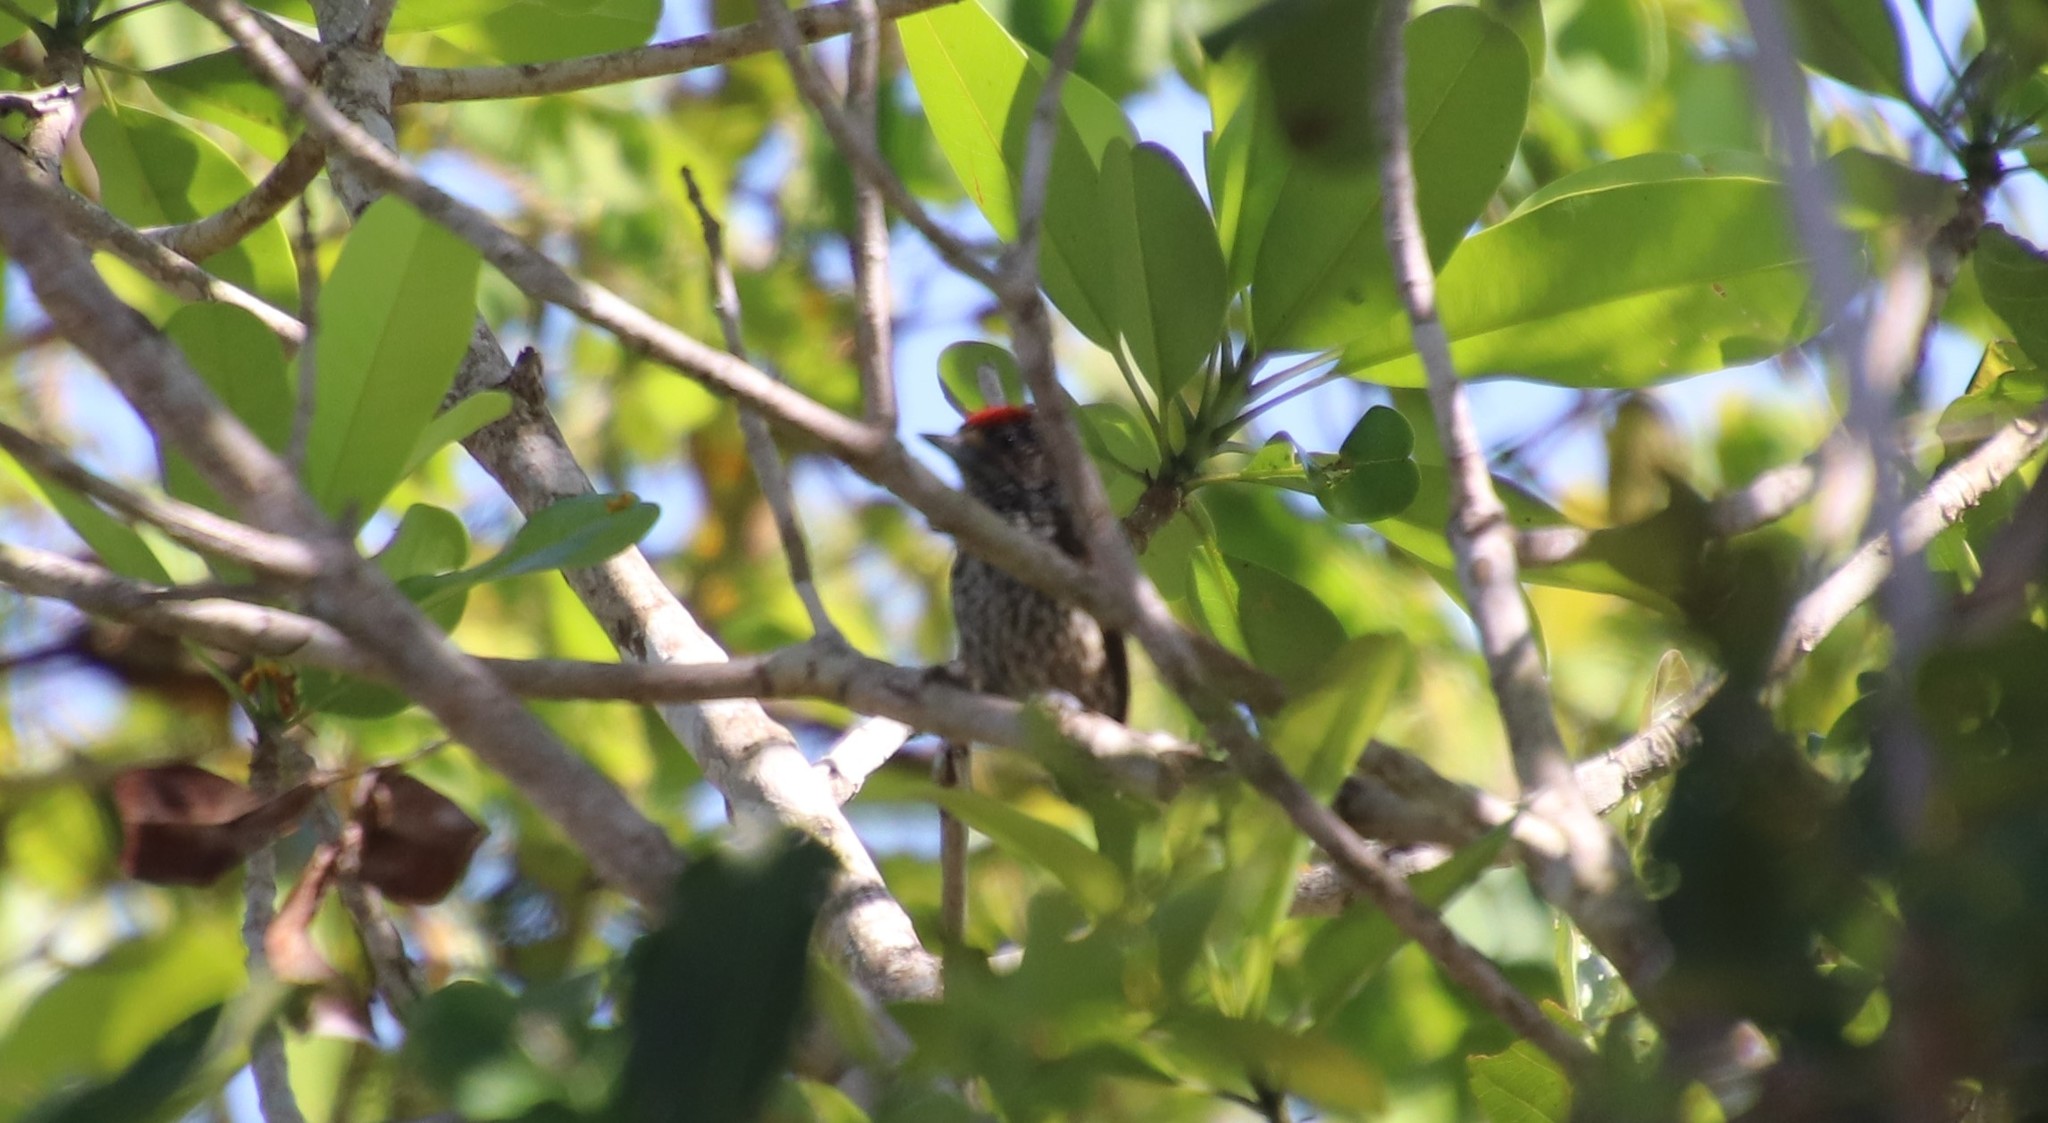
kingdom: Animalia
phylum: Chordata
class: Aves
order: Piciformes
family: Picidae
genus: Picumnus
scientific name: Picumnus albosquamatus
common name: White-wedged piculet
